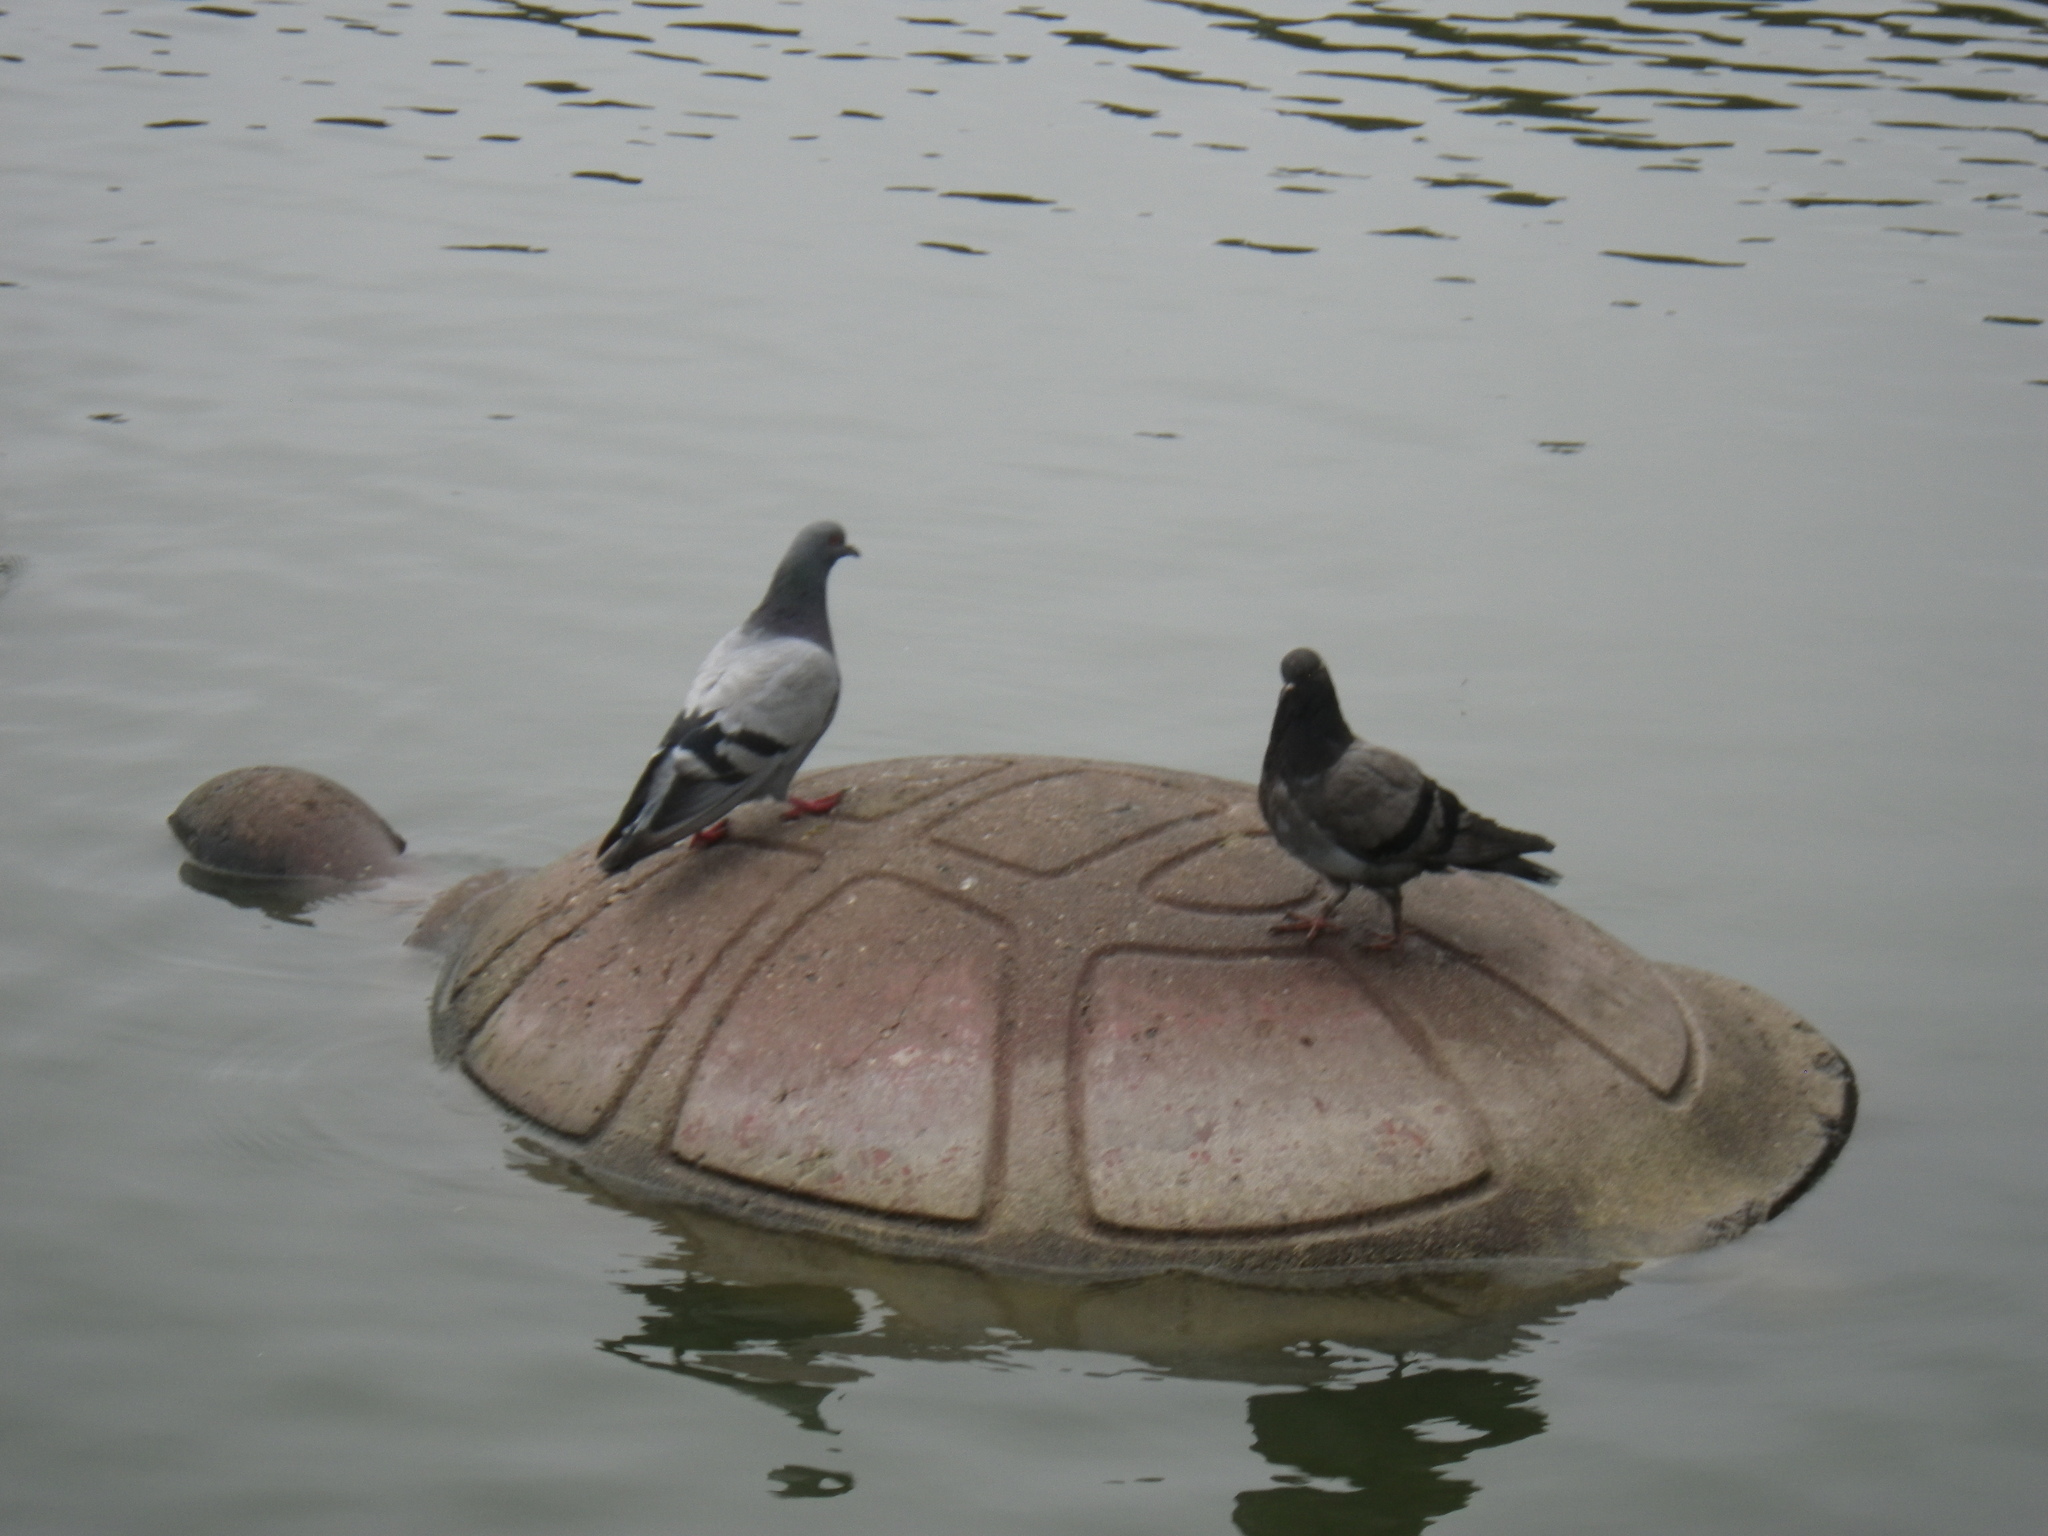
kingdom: Animalia
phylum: Chordata
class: Aves
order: Columbiformes
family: Columbidae
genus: Columba
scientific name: Columba livia
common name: Rock pigeon
